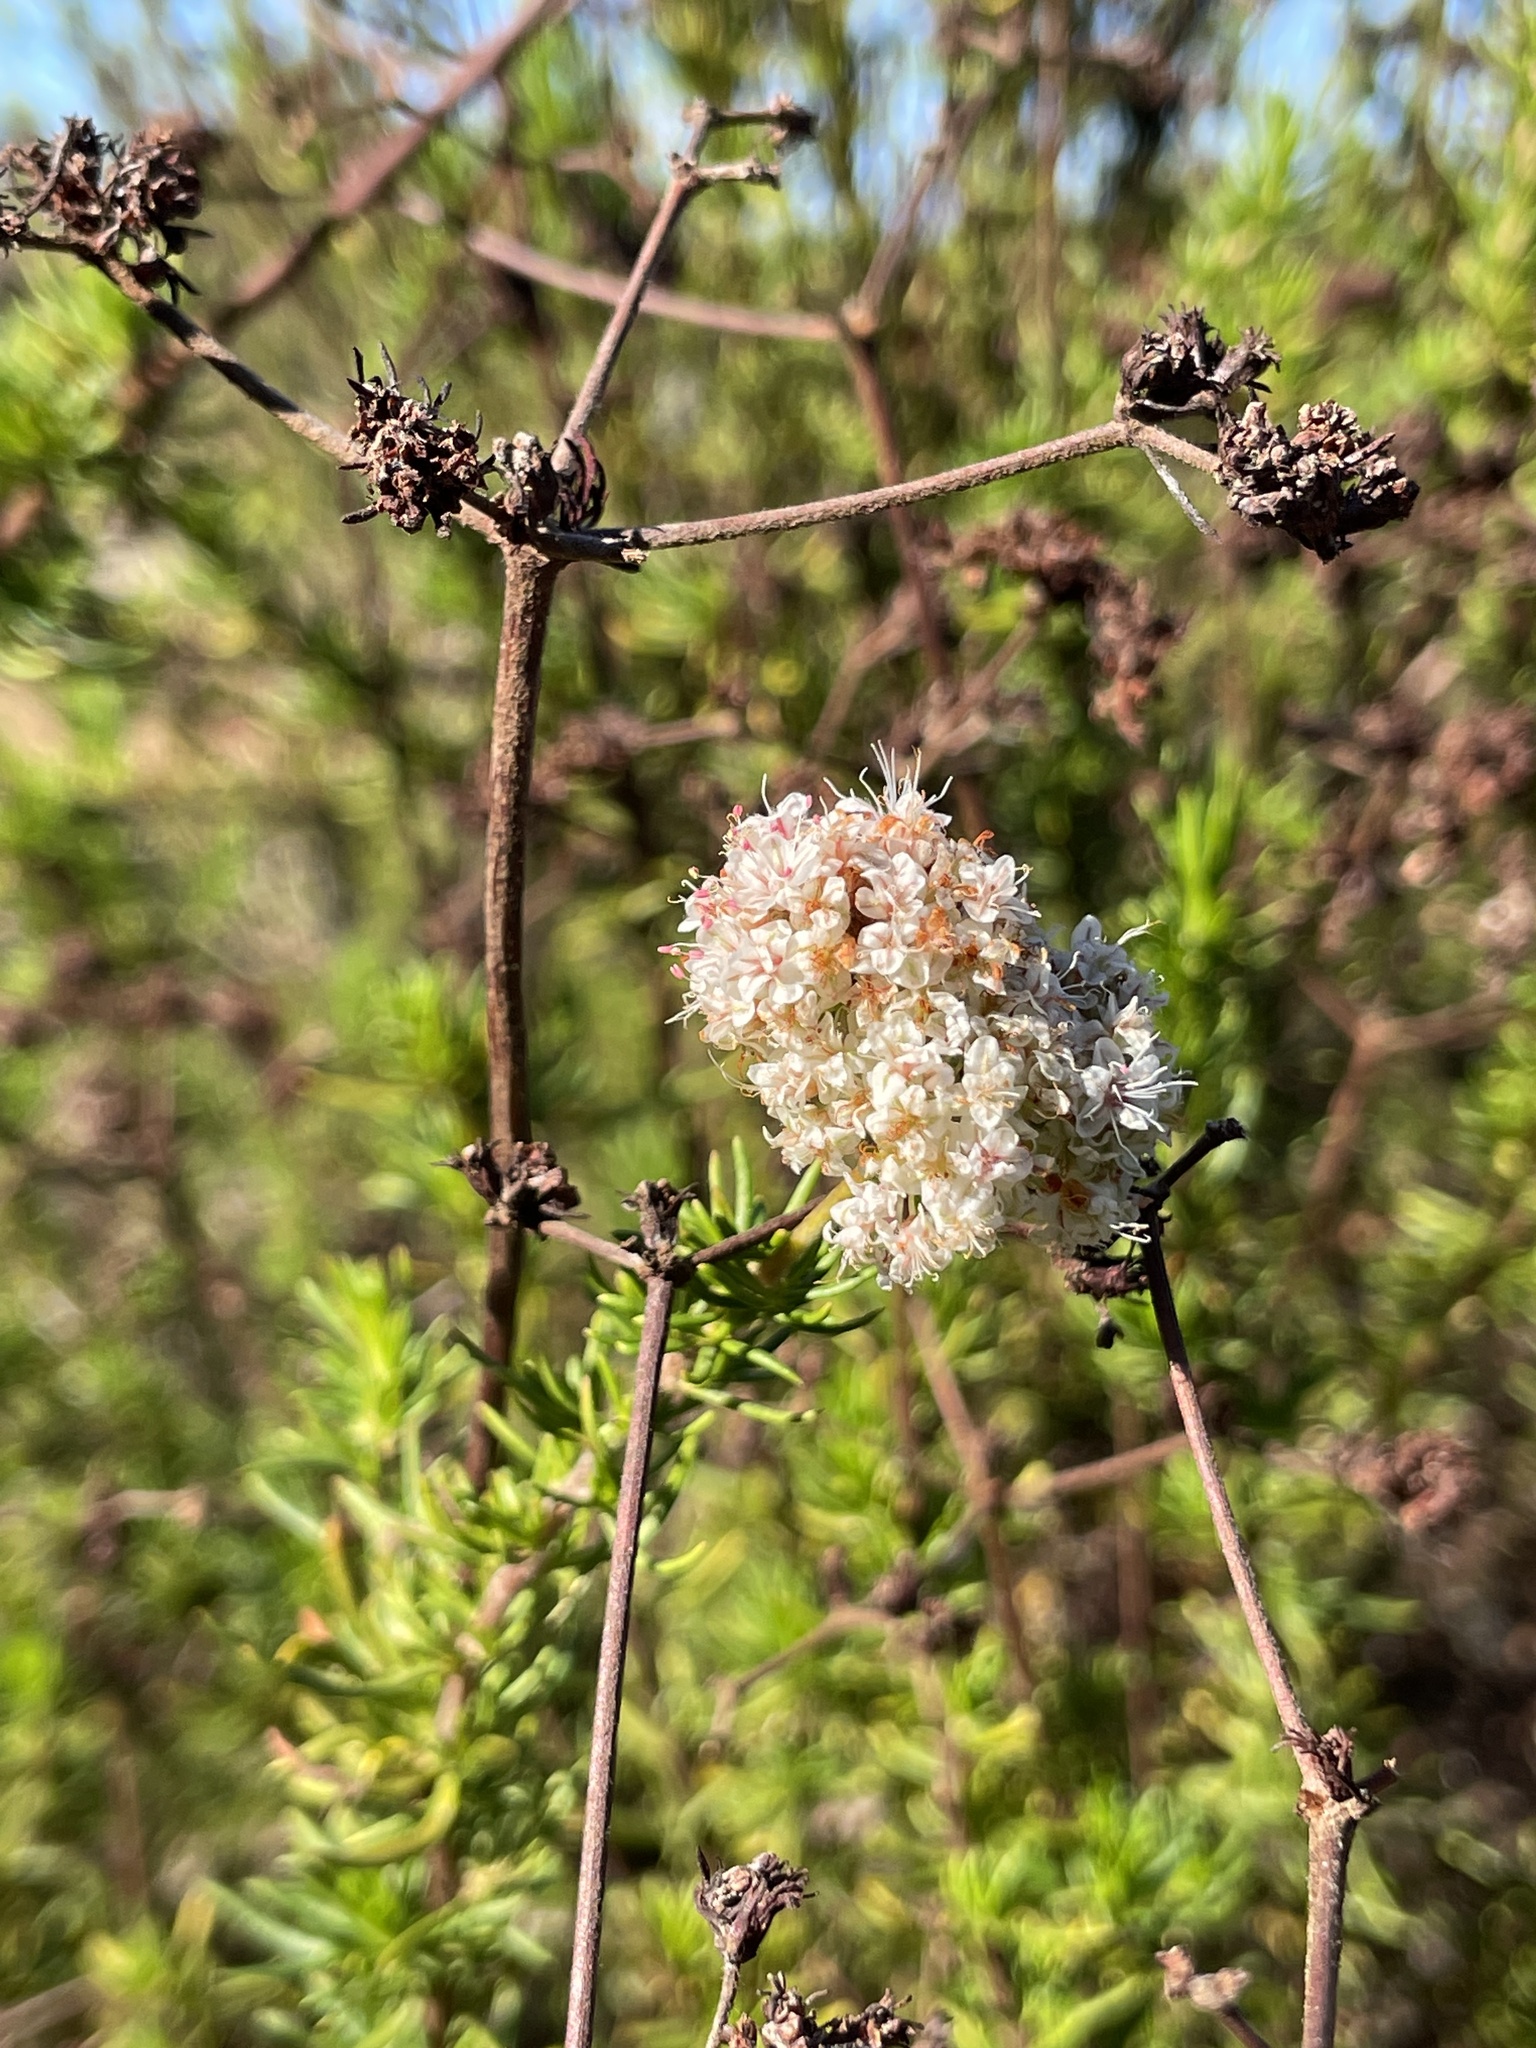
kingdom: Plantae
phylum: Tracheophyta
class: Magnoliopsida
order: Caryophyllales
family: Polygonaceae
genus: Eriogonum
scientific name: Eriogonum fasciculatum
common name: California wild buckwheat
